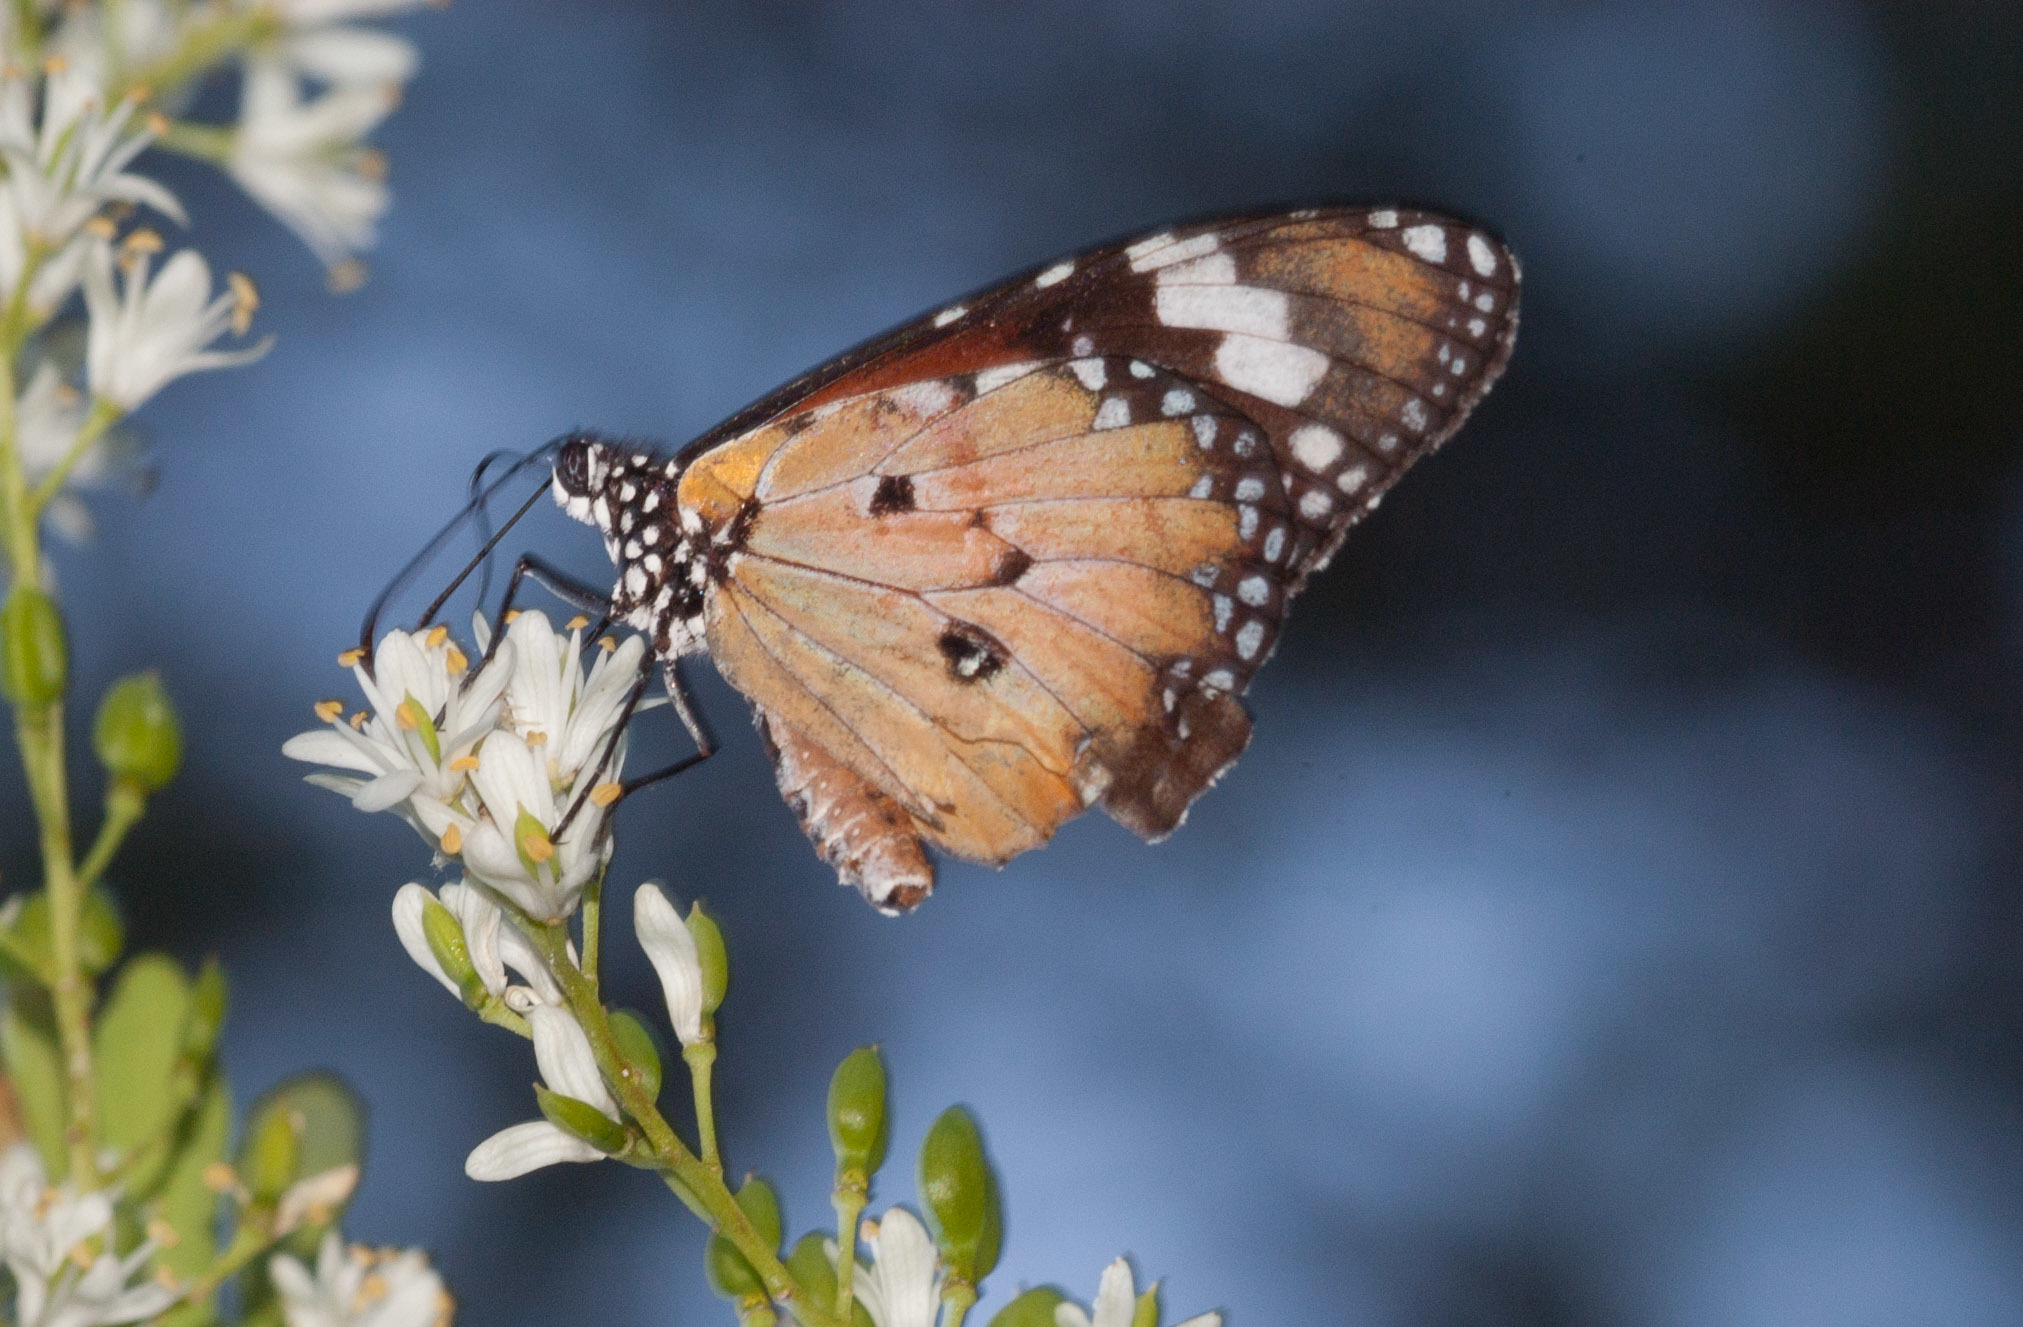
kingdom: Animalia
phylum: Arthropoda
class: Insecta
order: Lepidoptera
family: Nymphalidae
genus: Danaus
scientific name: Danaus chrysippus
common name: Plain tiger
